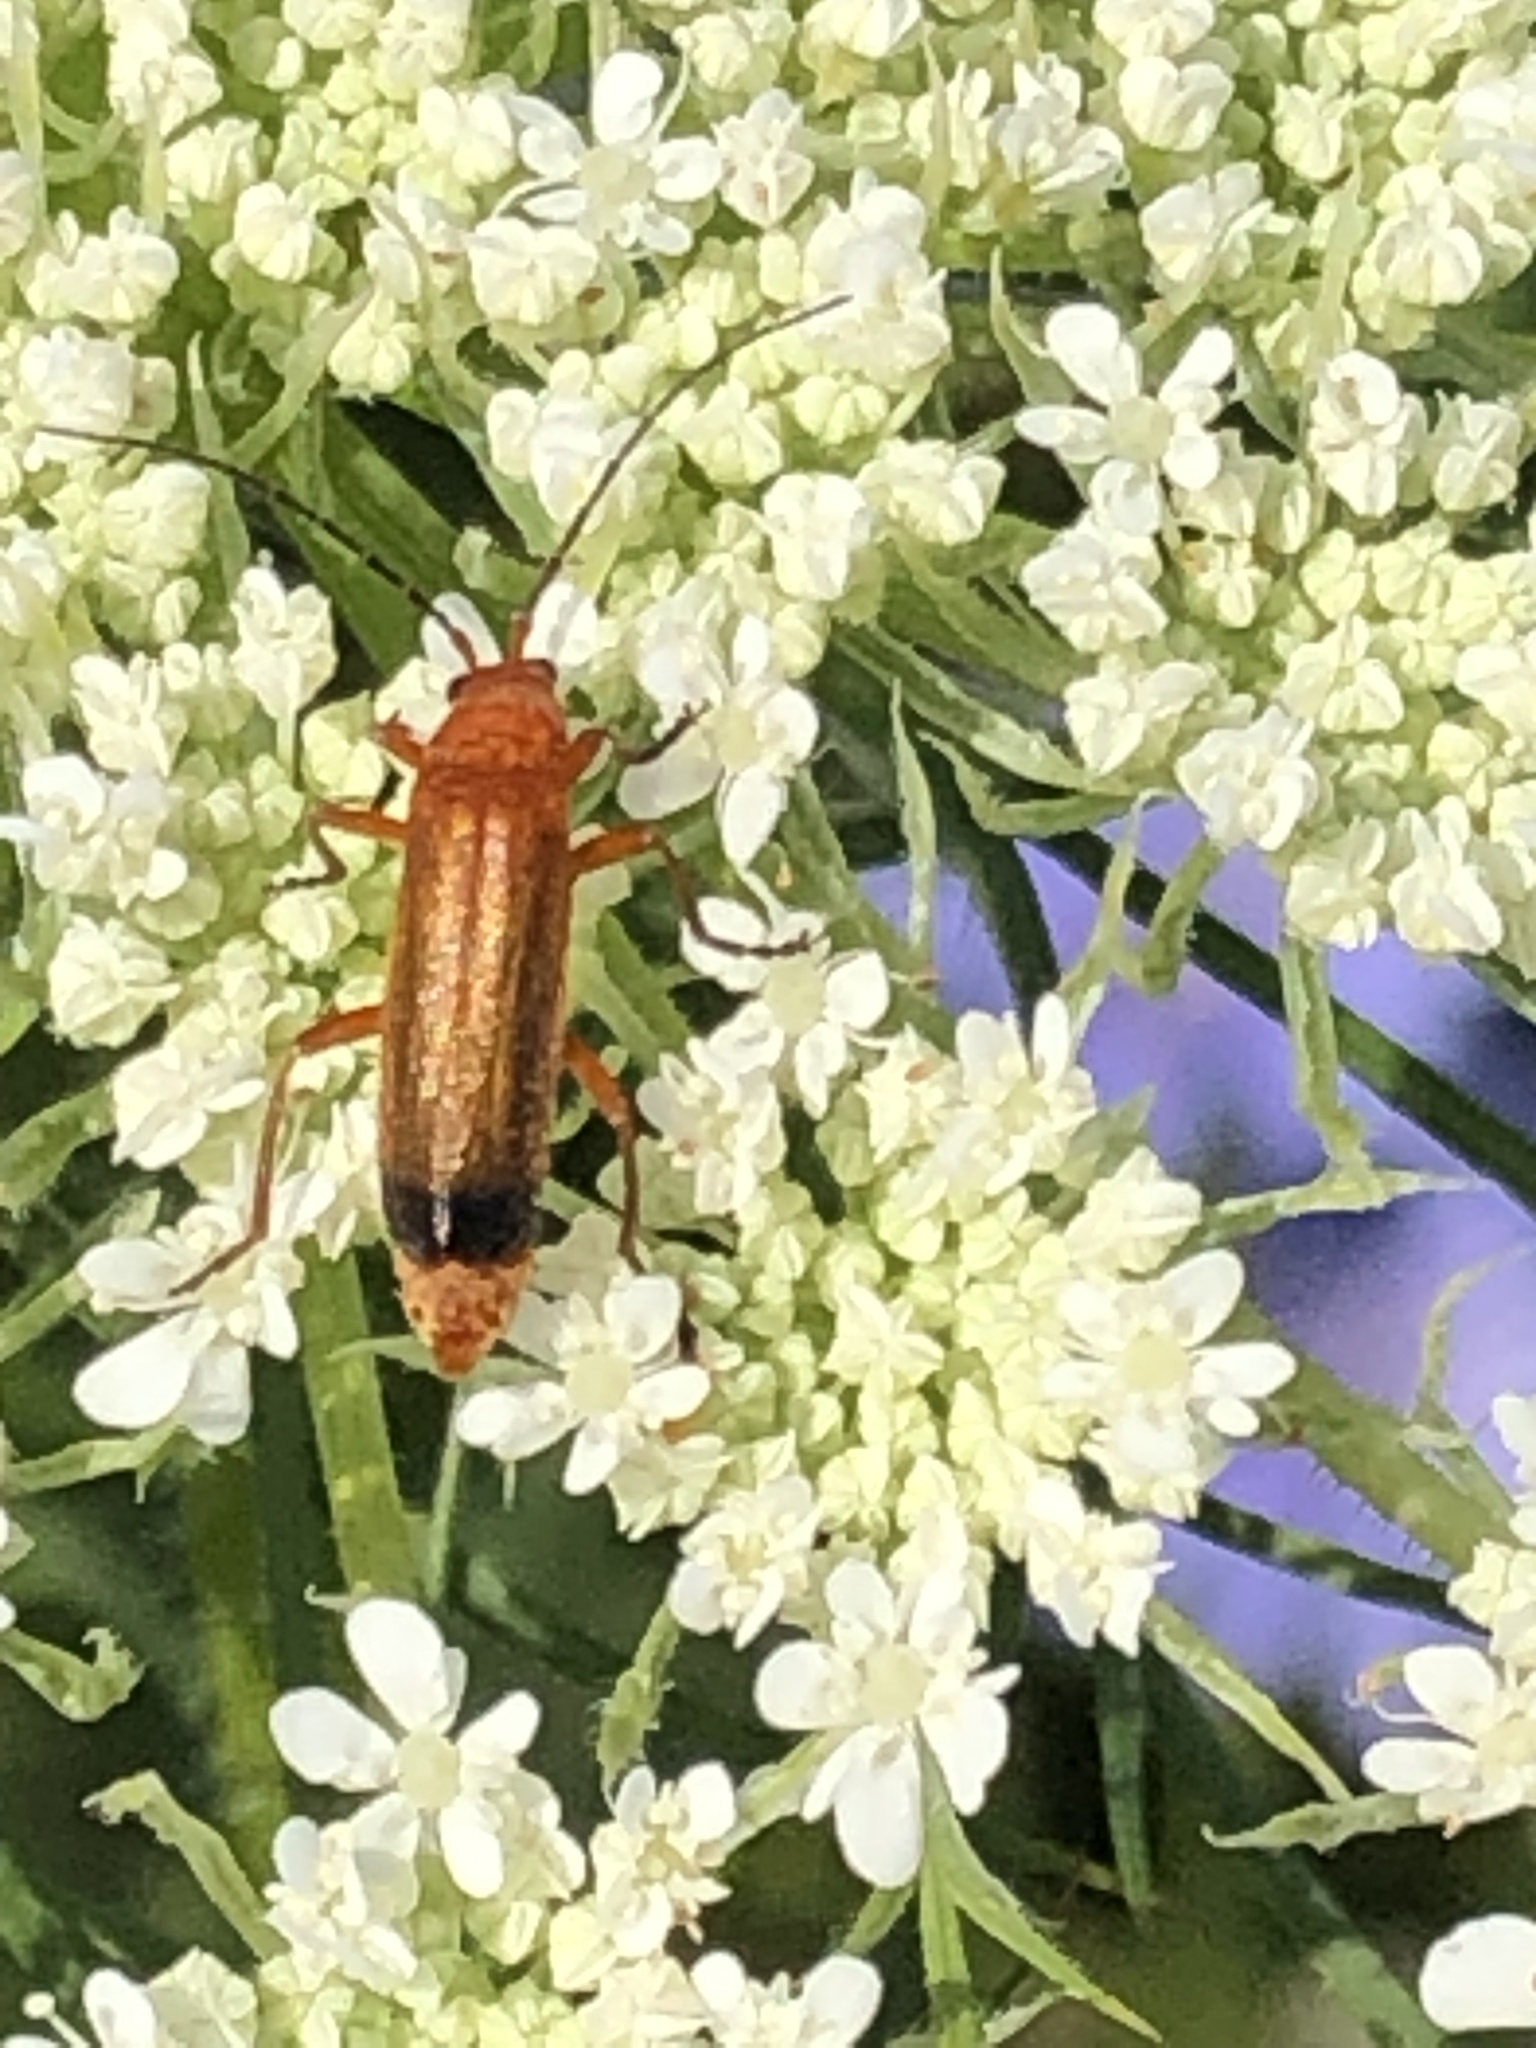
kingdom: Animalia
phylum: Arthropoda
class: Insecta
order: Coleoptera
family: Cantharidae
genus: Rhagonycha
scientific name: Rhagonycha fulva
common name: Common red soldier beetle
